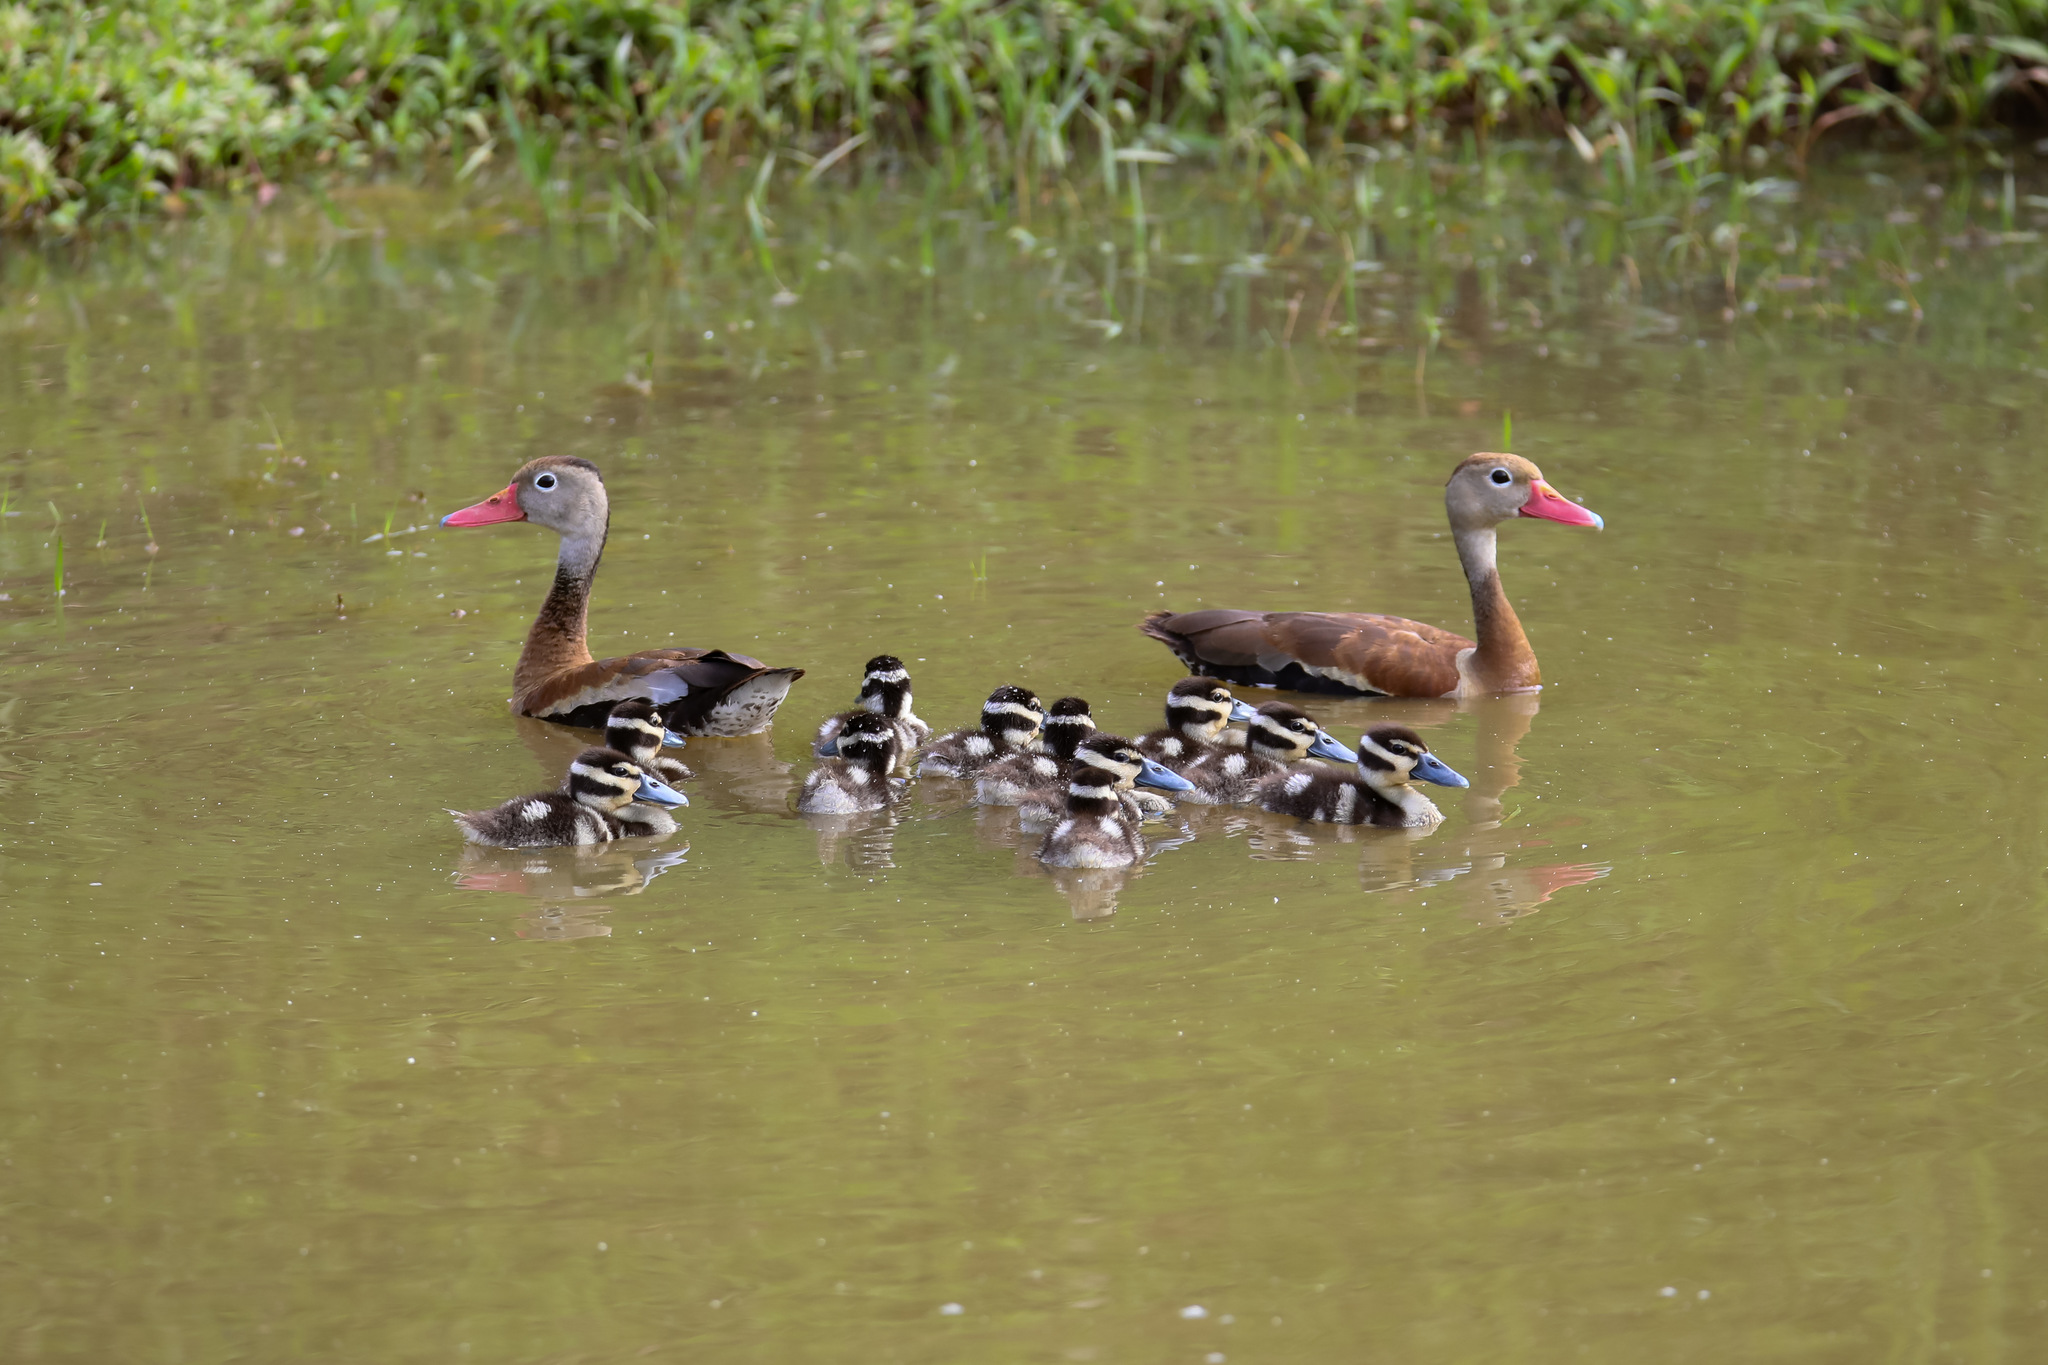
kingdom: Animalia
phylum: Chordata
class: Aves
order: Anseriformes
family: Anatidae
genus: Dendrocygna
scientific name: Dendrocygna autumnalis
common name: Black-bellied whistling duck
